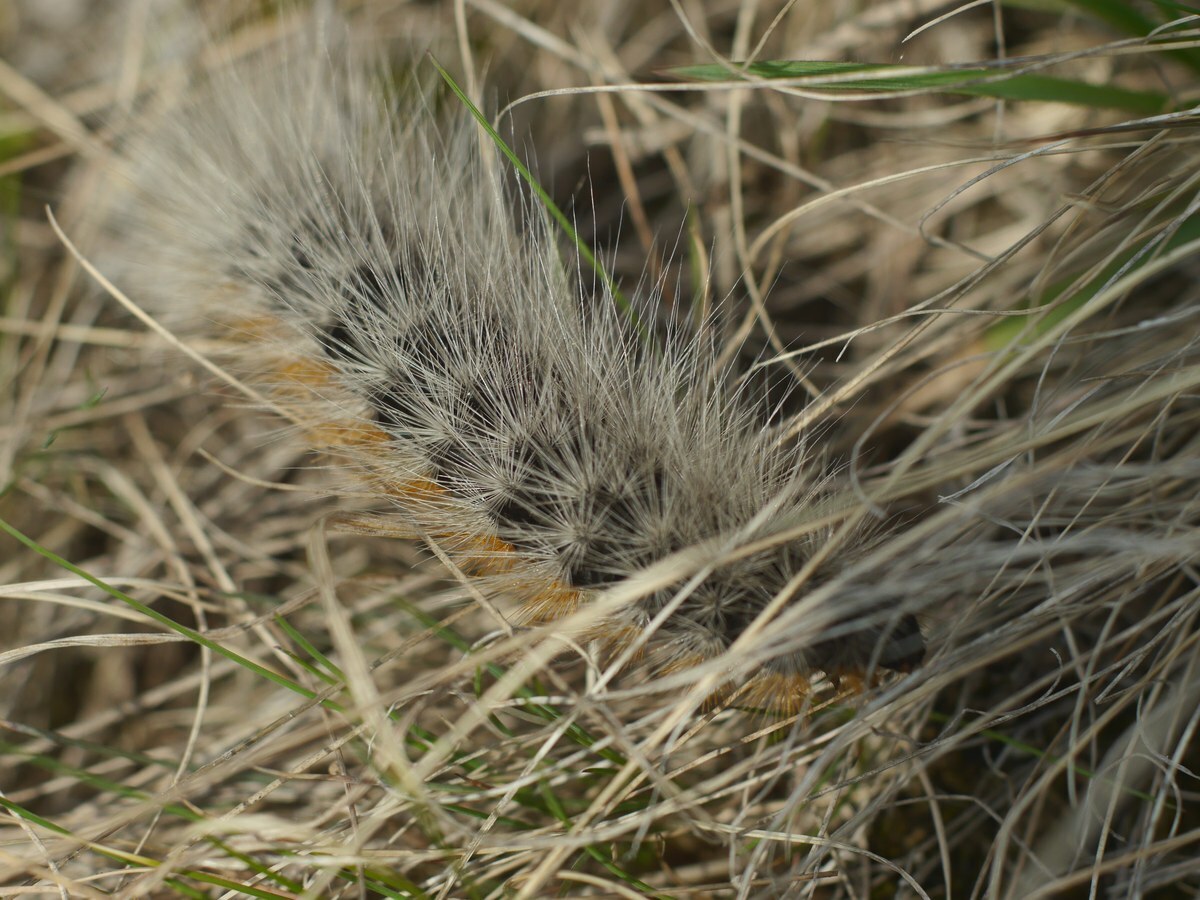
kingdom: Animalia
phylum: Arthropoda
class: Insecta
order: Lepidoptera
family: Erebidae
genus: Eucharia
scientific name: Eucharia festiva
